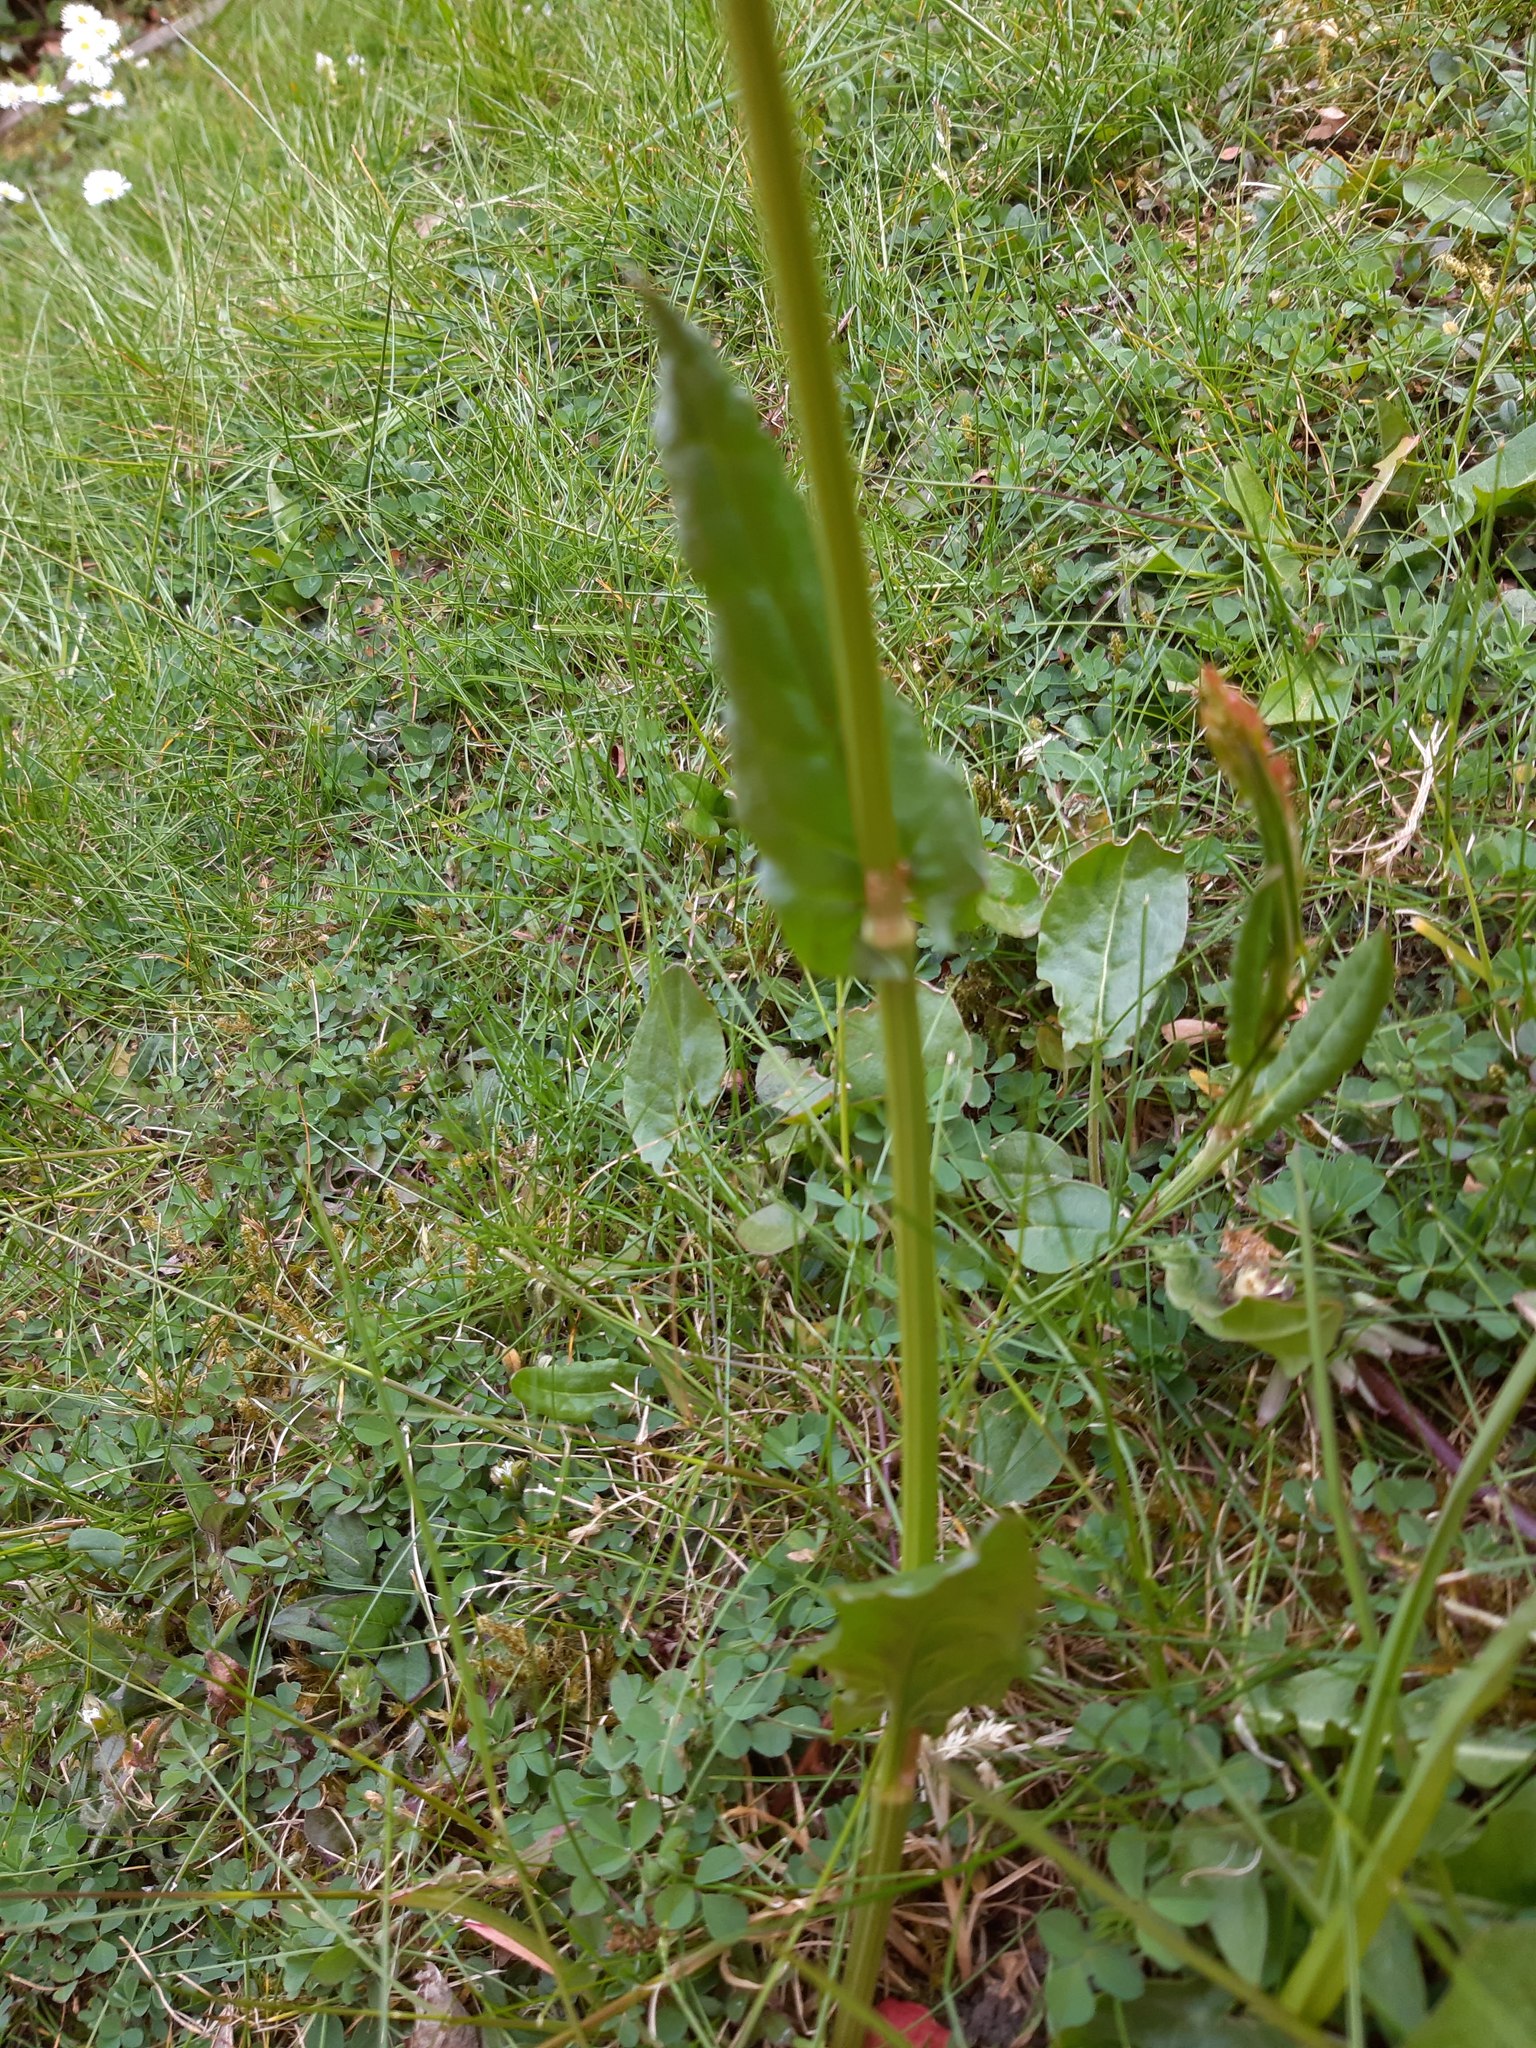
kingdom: Plantae
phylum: Tracheophyta
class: Magnoliopsida
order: Caryophyllales
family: Polygonaceae
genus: Rumex
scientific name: Rumex acetosa
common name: Garden sorrel
